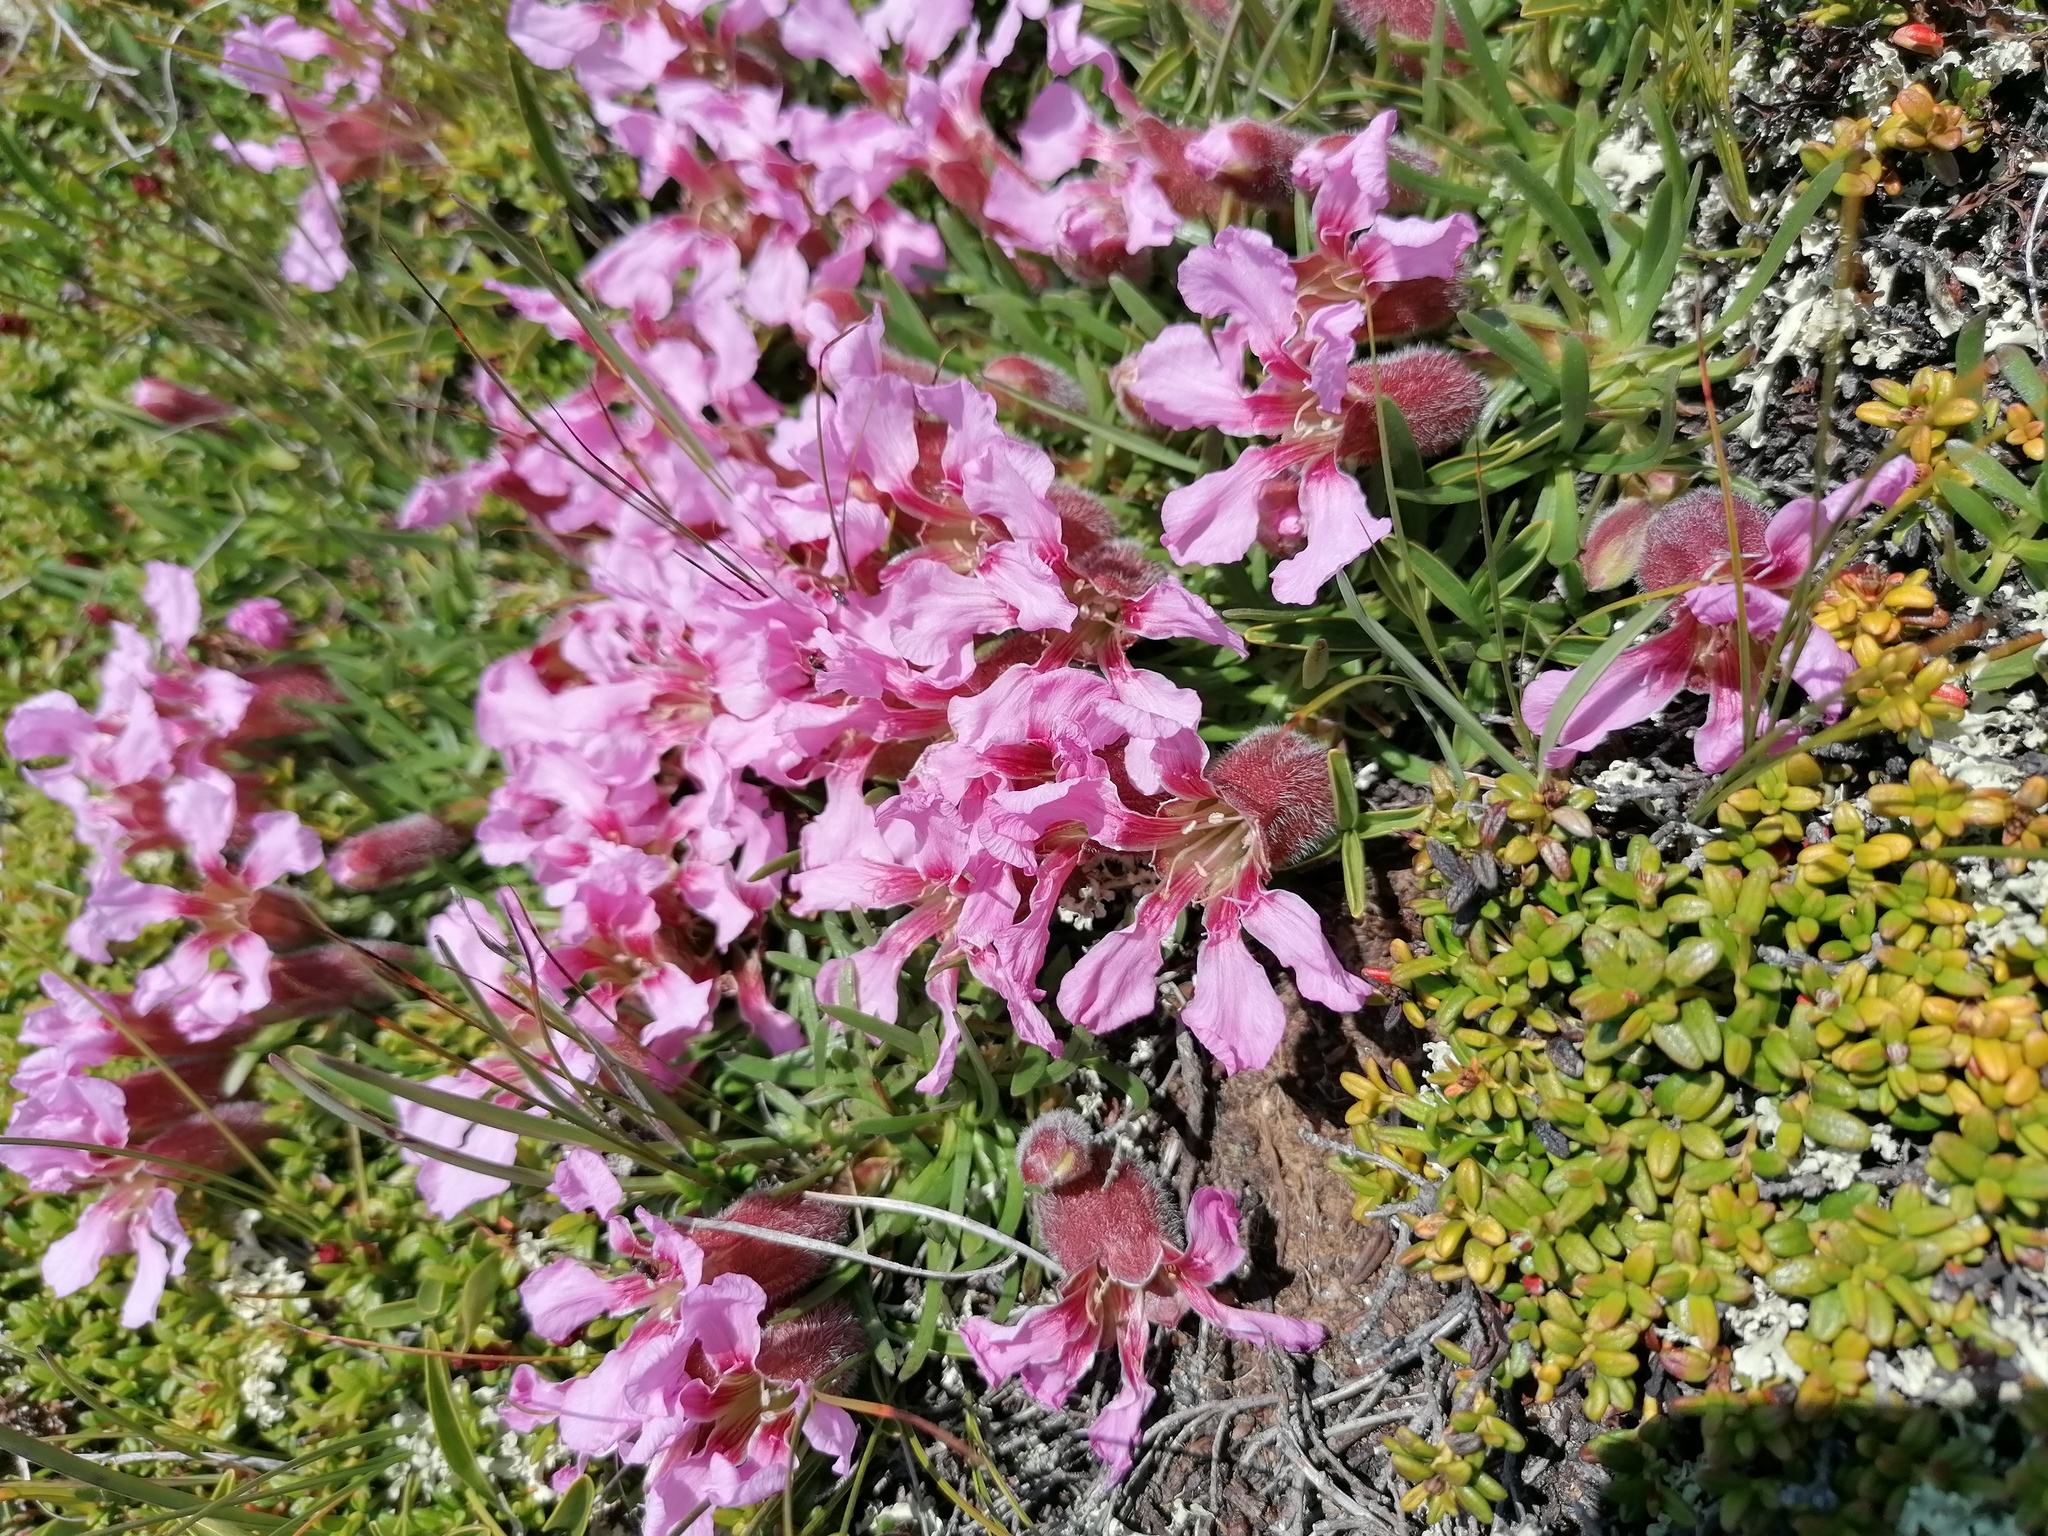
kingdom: Plantae
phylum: Tracheophyta
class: Magnoliopsida
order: Caryophyllales
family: Caryophyllaceae
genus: Saponaria
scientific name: Saponaria pumila
